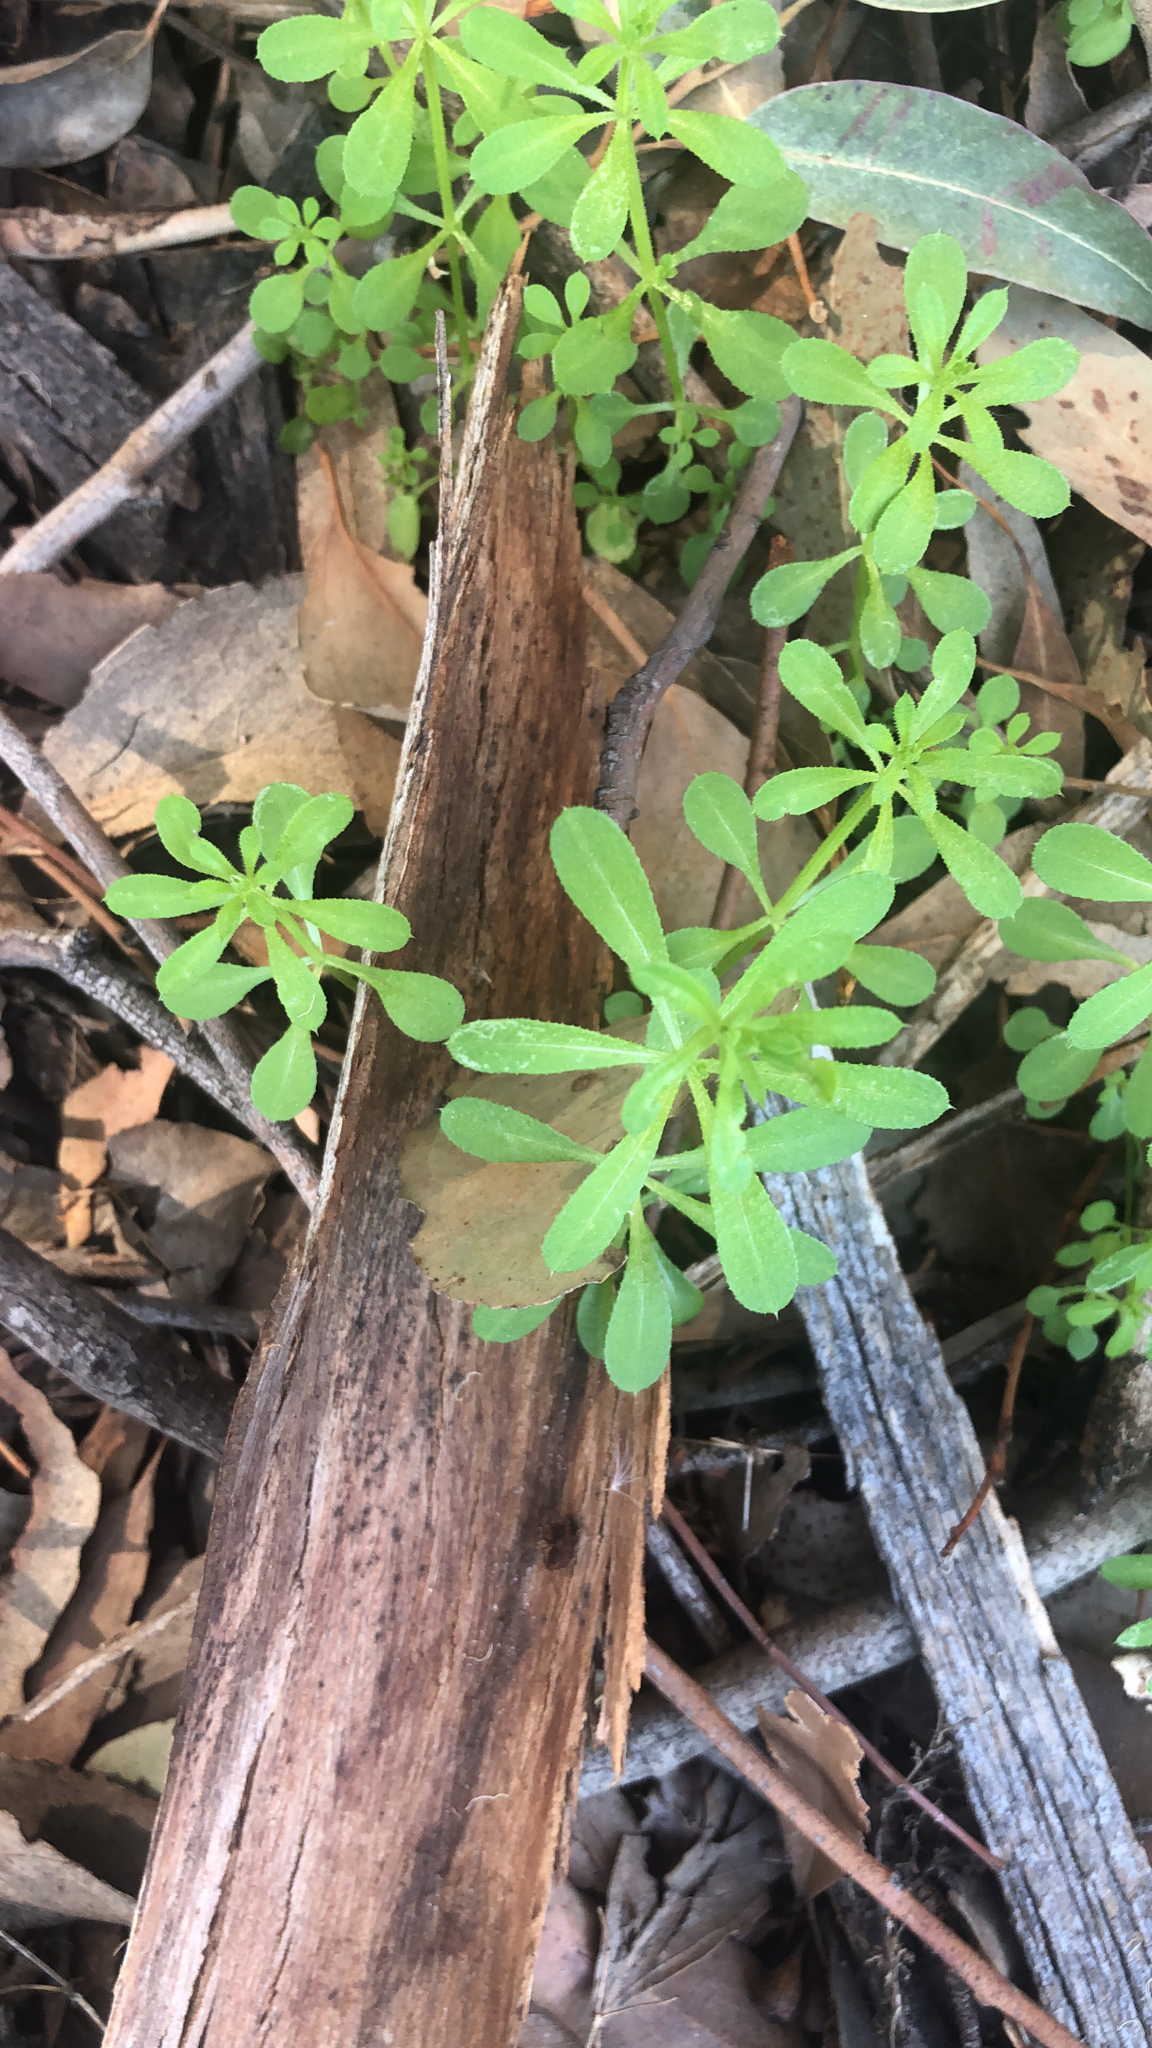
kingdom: Plantae
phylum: Tracheophyta
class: Magnoliopsida
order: Gentianales
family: Rubiaceae
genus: Galium
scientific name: Galium aparine
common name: Cleavers
